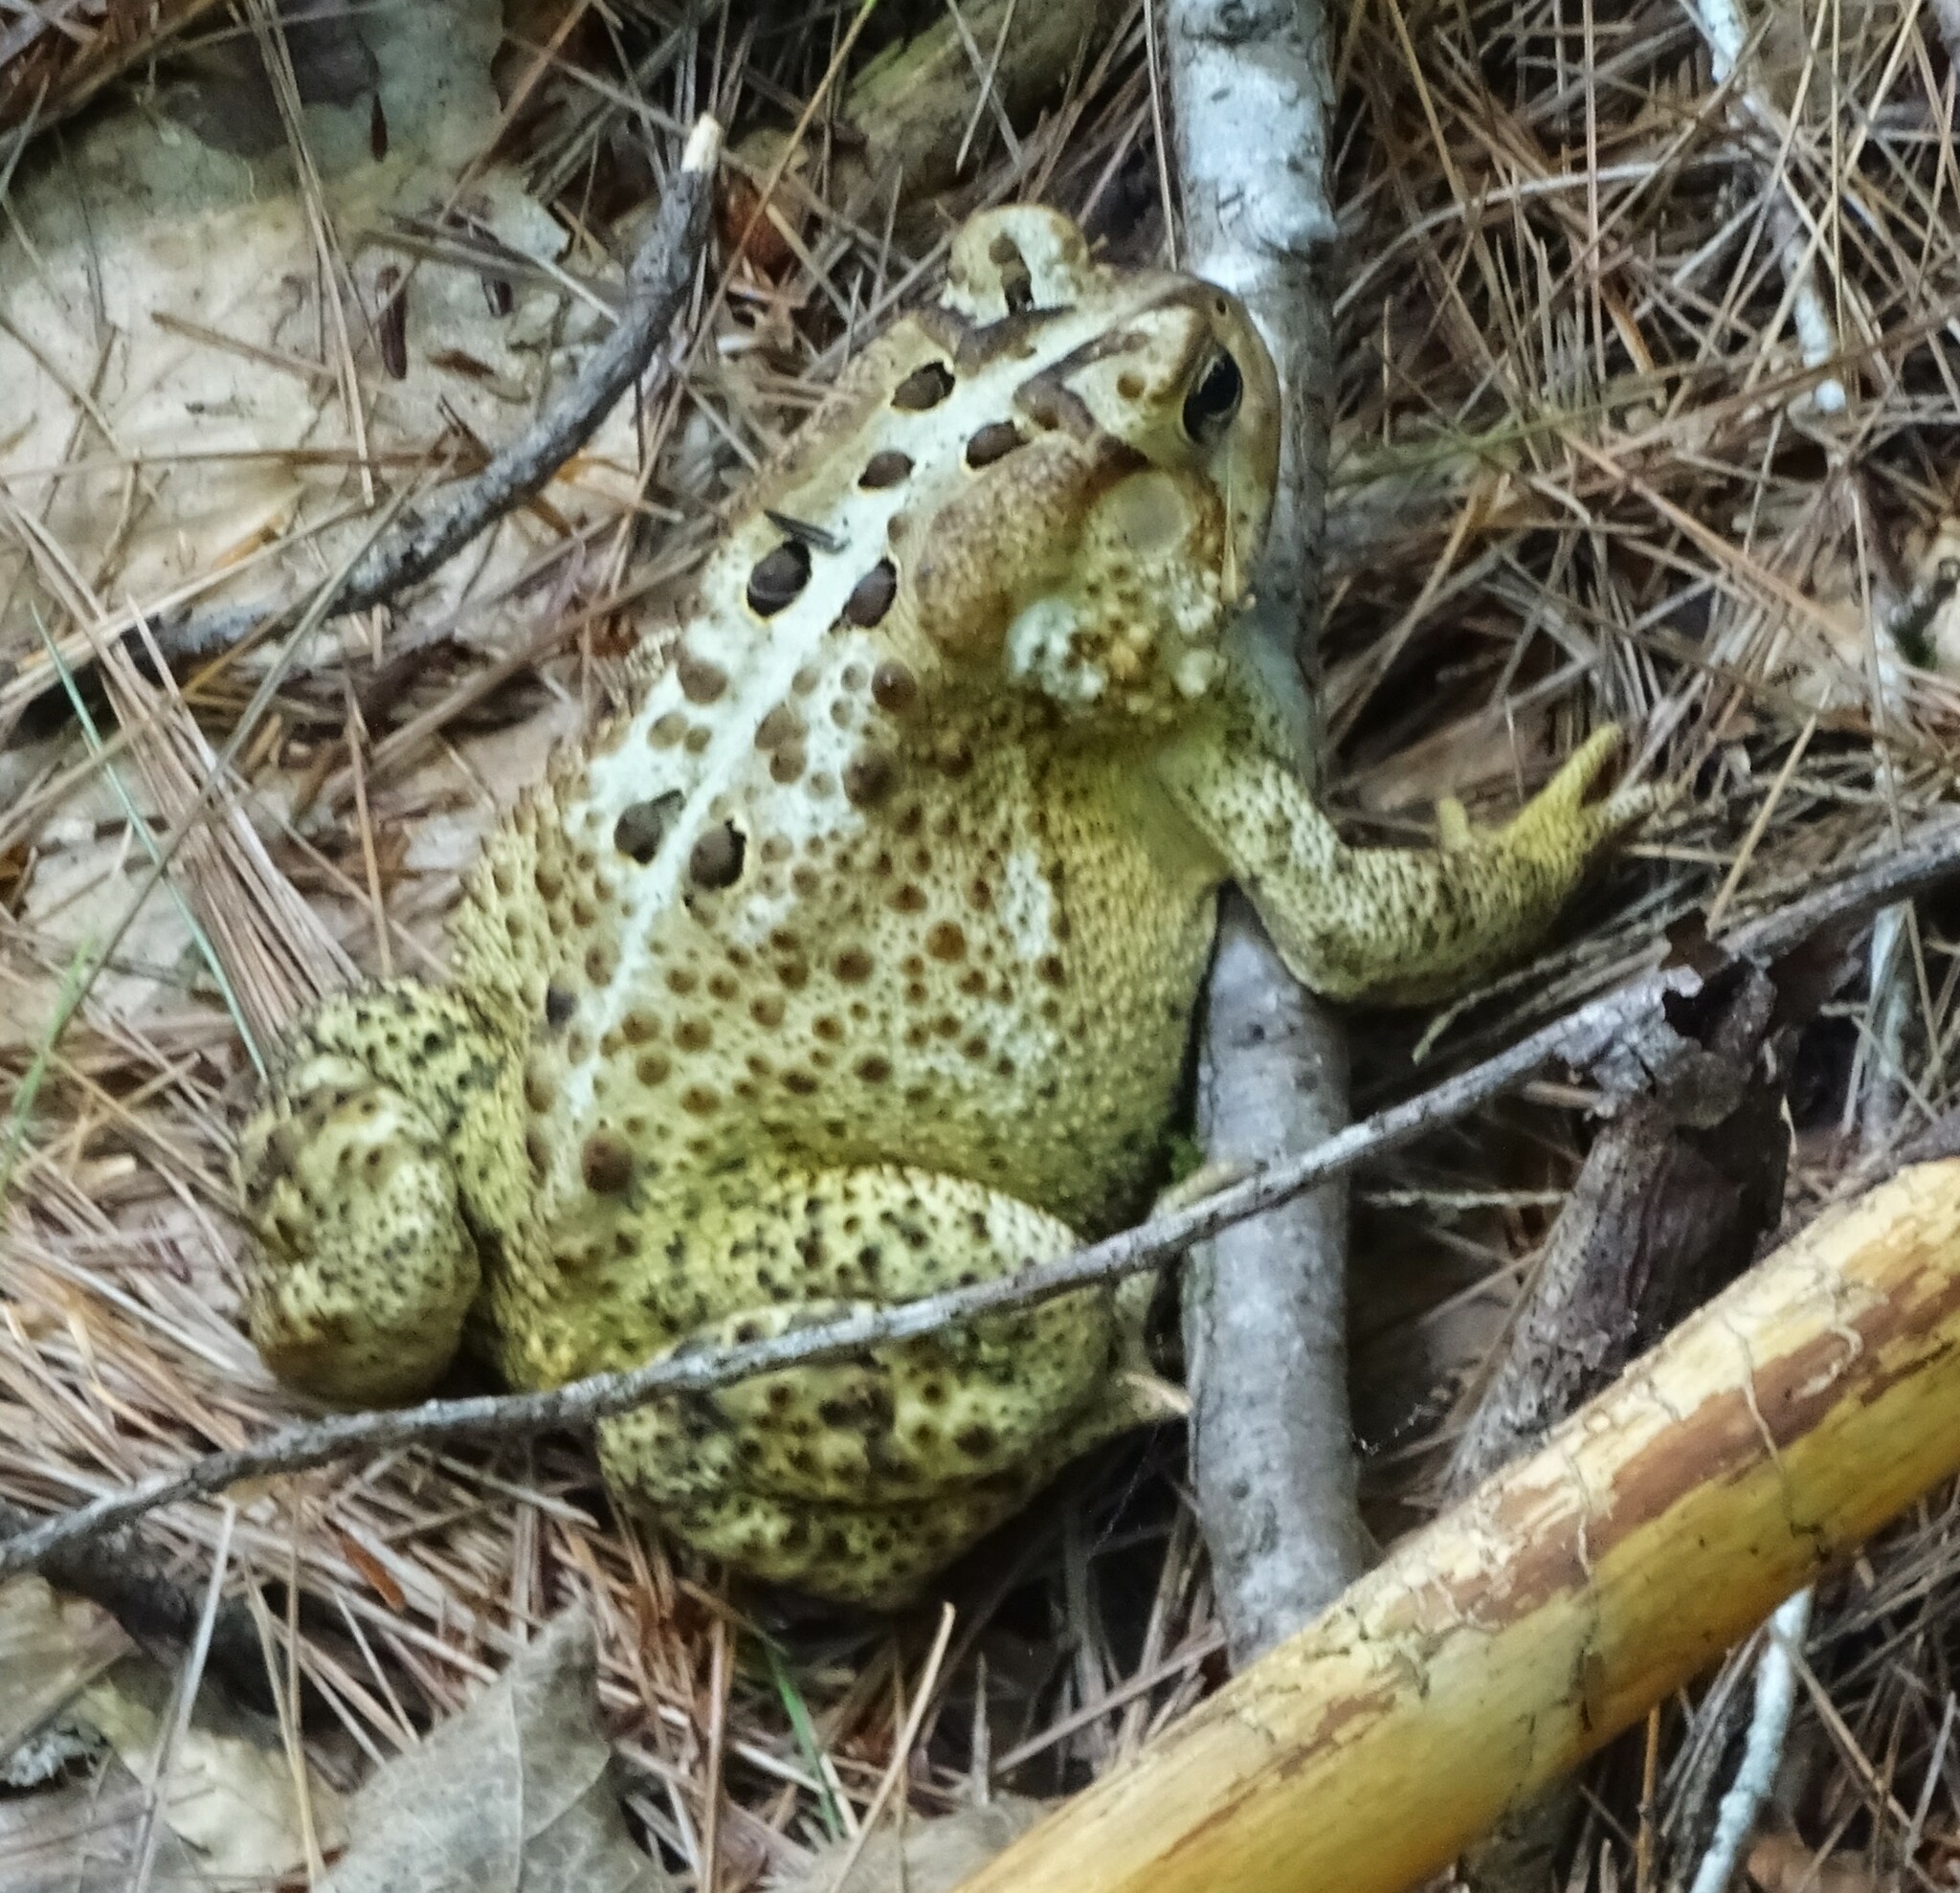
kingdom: Animalia
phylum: Chordata
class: Amphibia
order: Anura
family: Bufonidae
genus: Anaxyrus
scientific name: Anaxyrus americanus
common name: American toad
